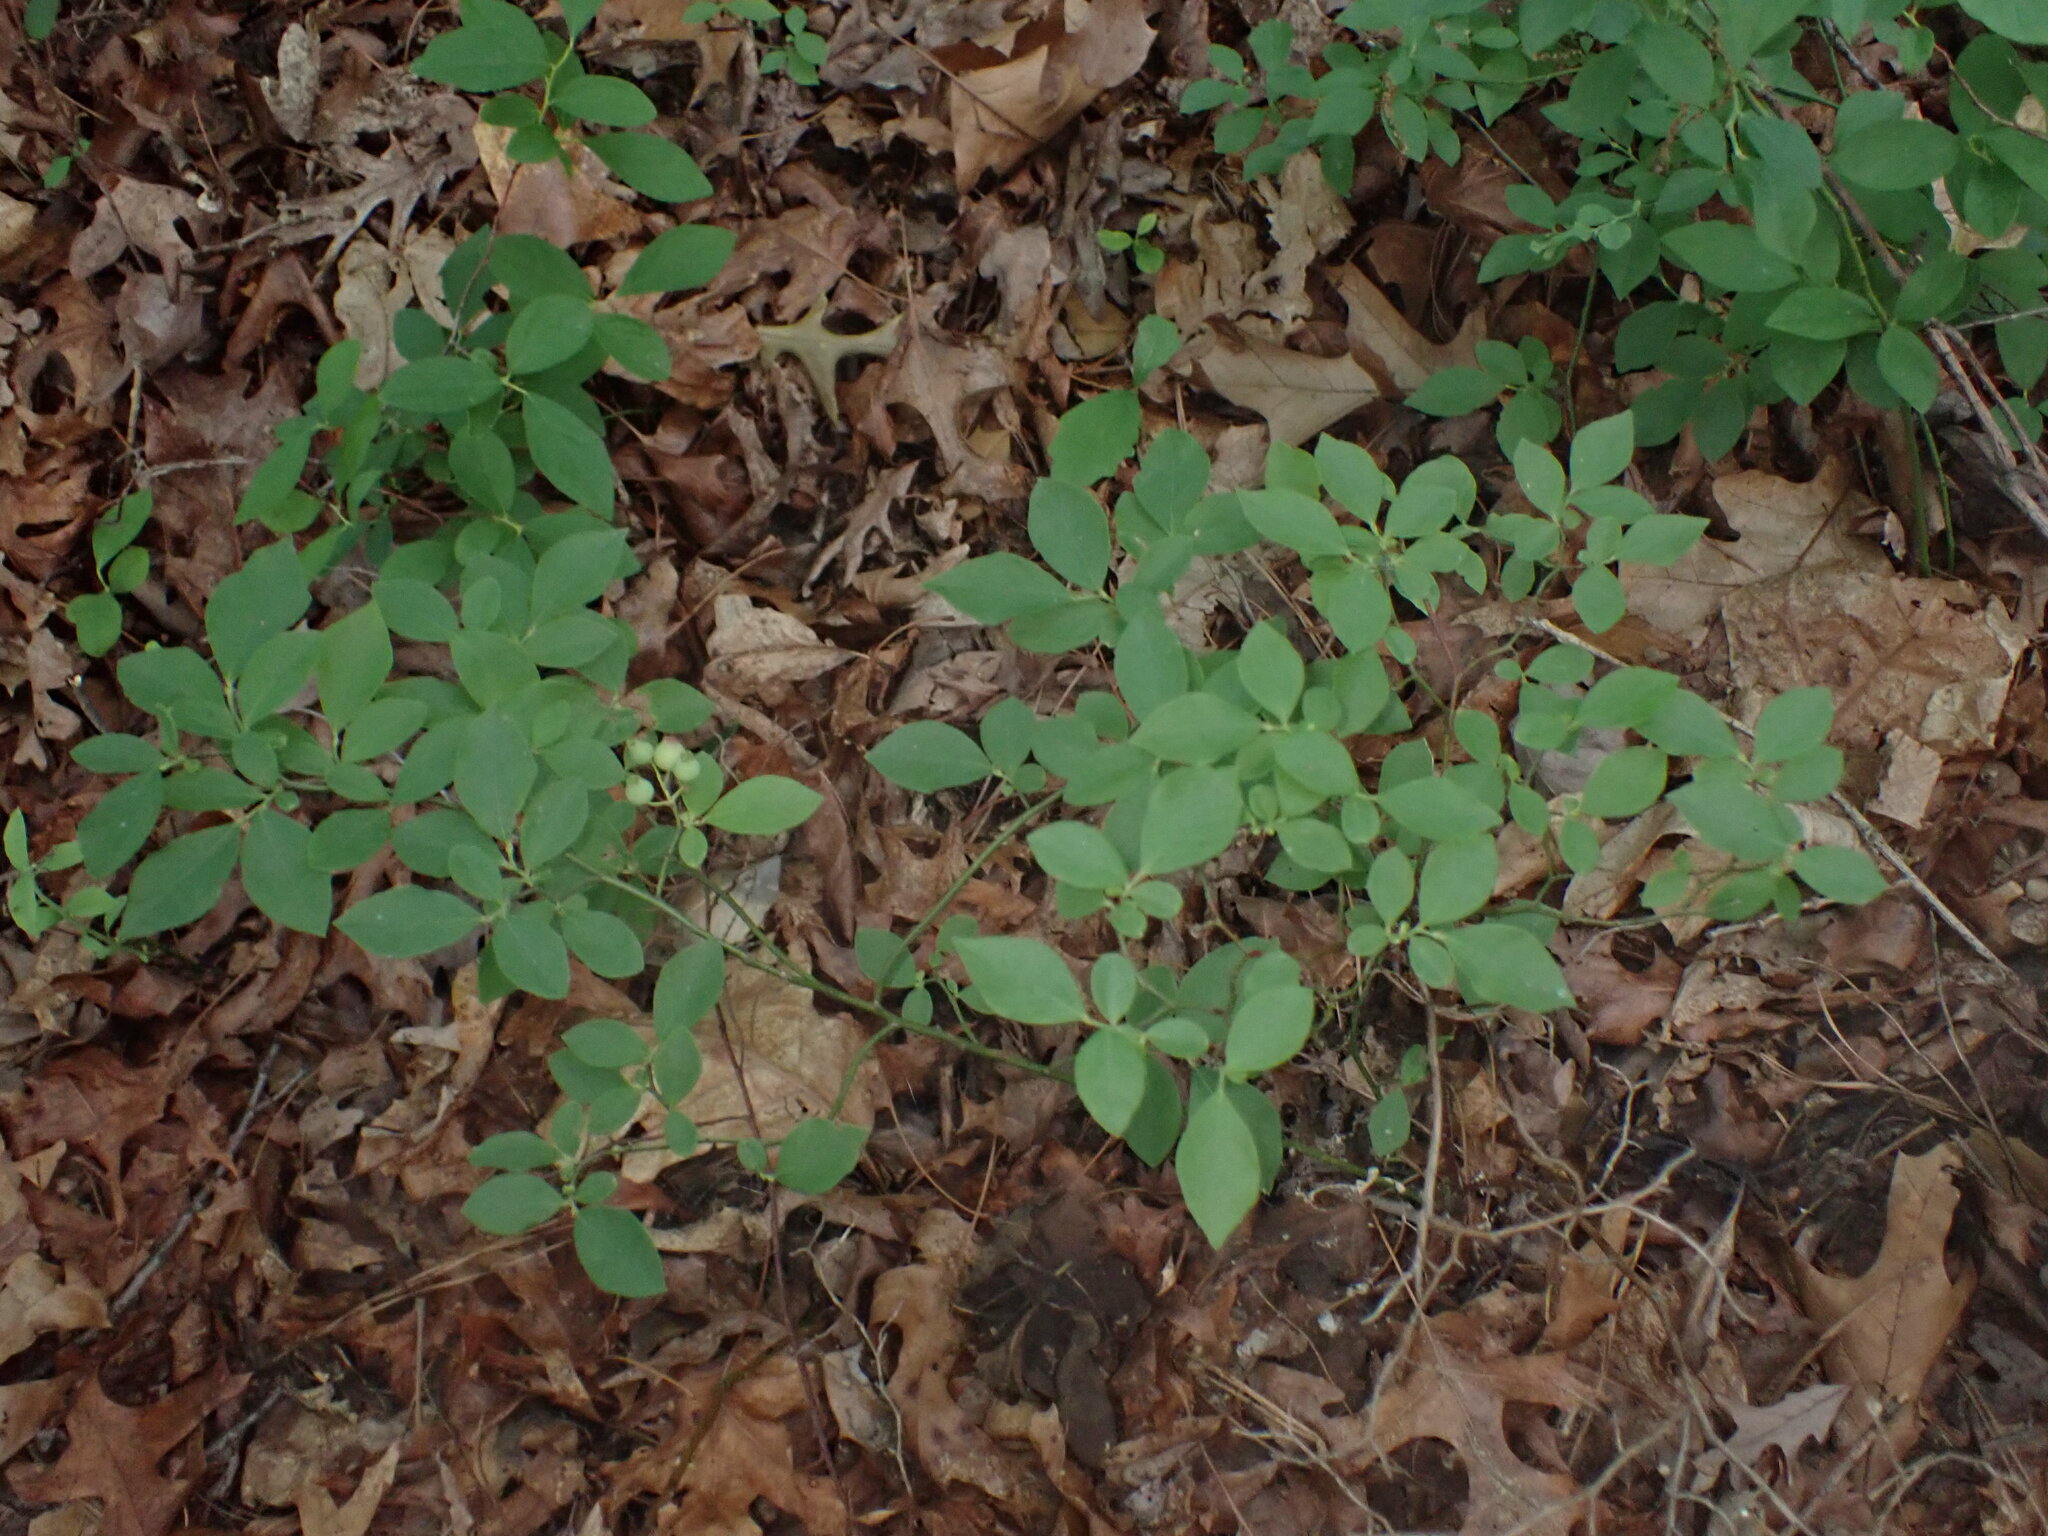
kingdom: Plantae
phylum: Tracheophyta
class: Magnoliopsida
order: Ericales
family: Ericaceae
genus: Vaccinium
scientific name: Vaccinium angustifolium
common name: Early lowbush blueberry
